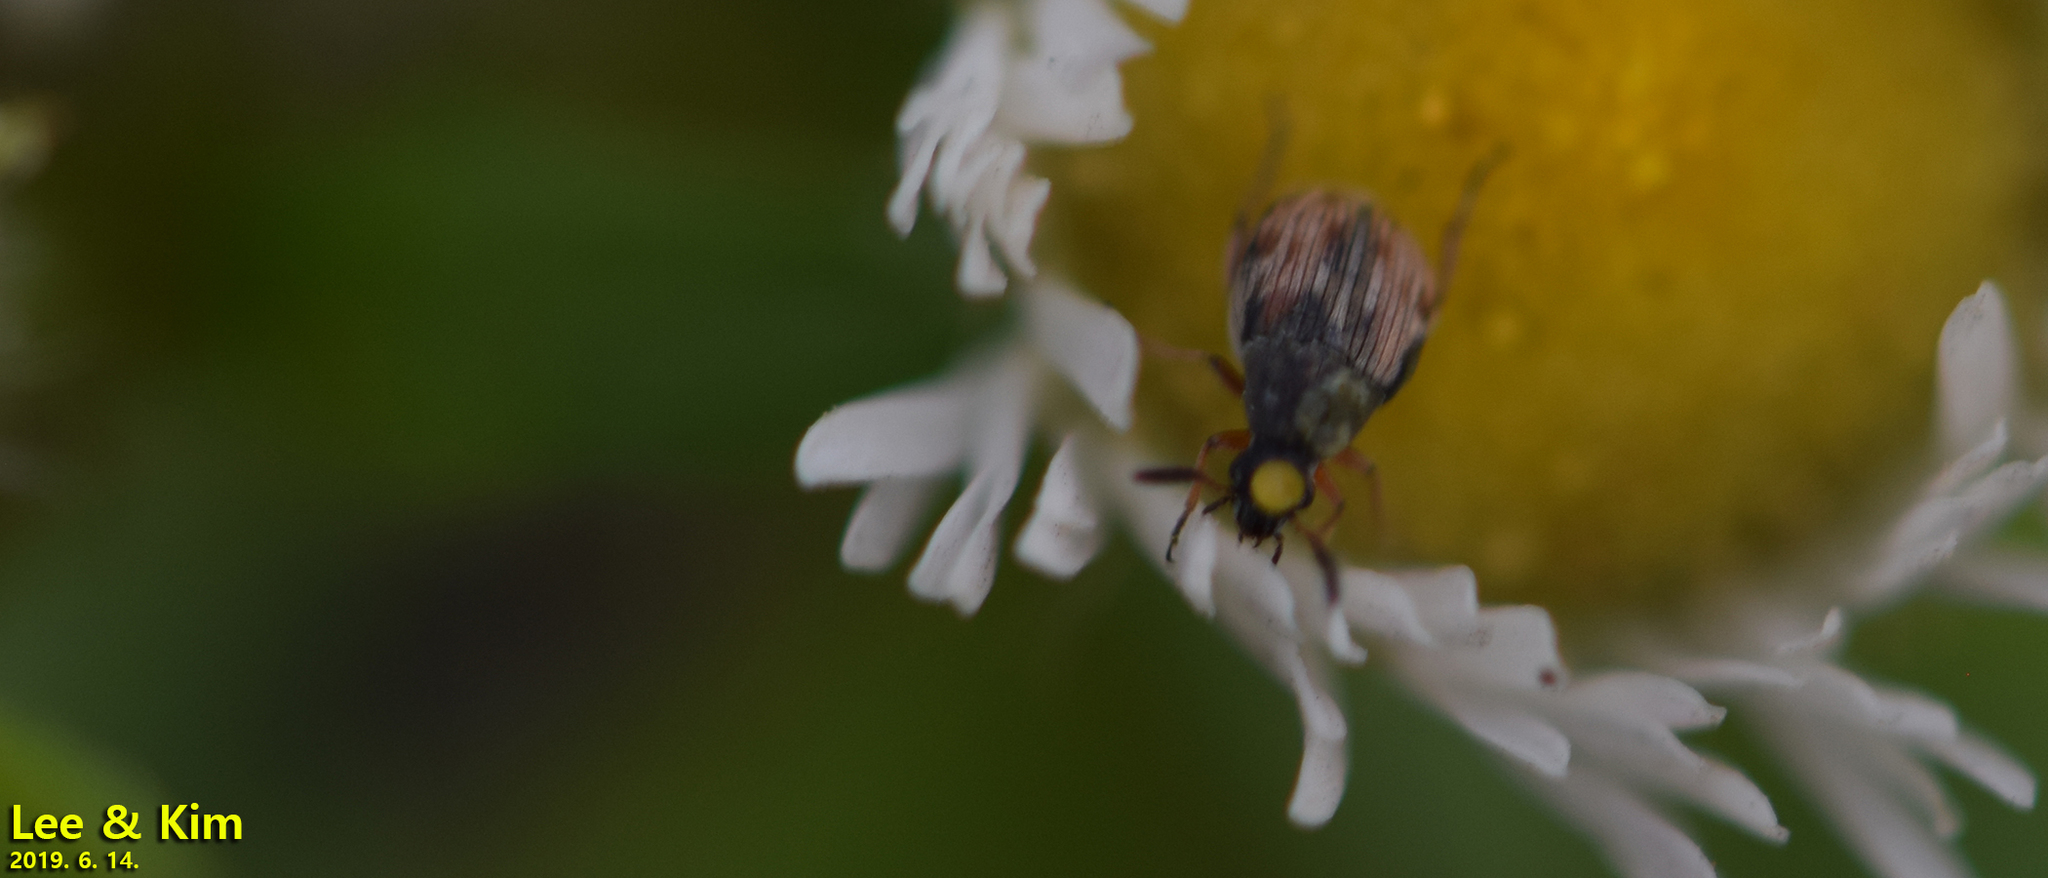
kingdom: Animalia
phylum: Arthropoda
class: Insecta
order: Coleoptera
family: Chrysomelidae
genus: Dactylispa
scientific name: Dactylispa pallidipennis
